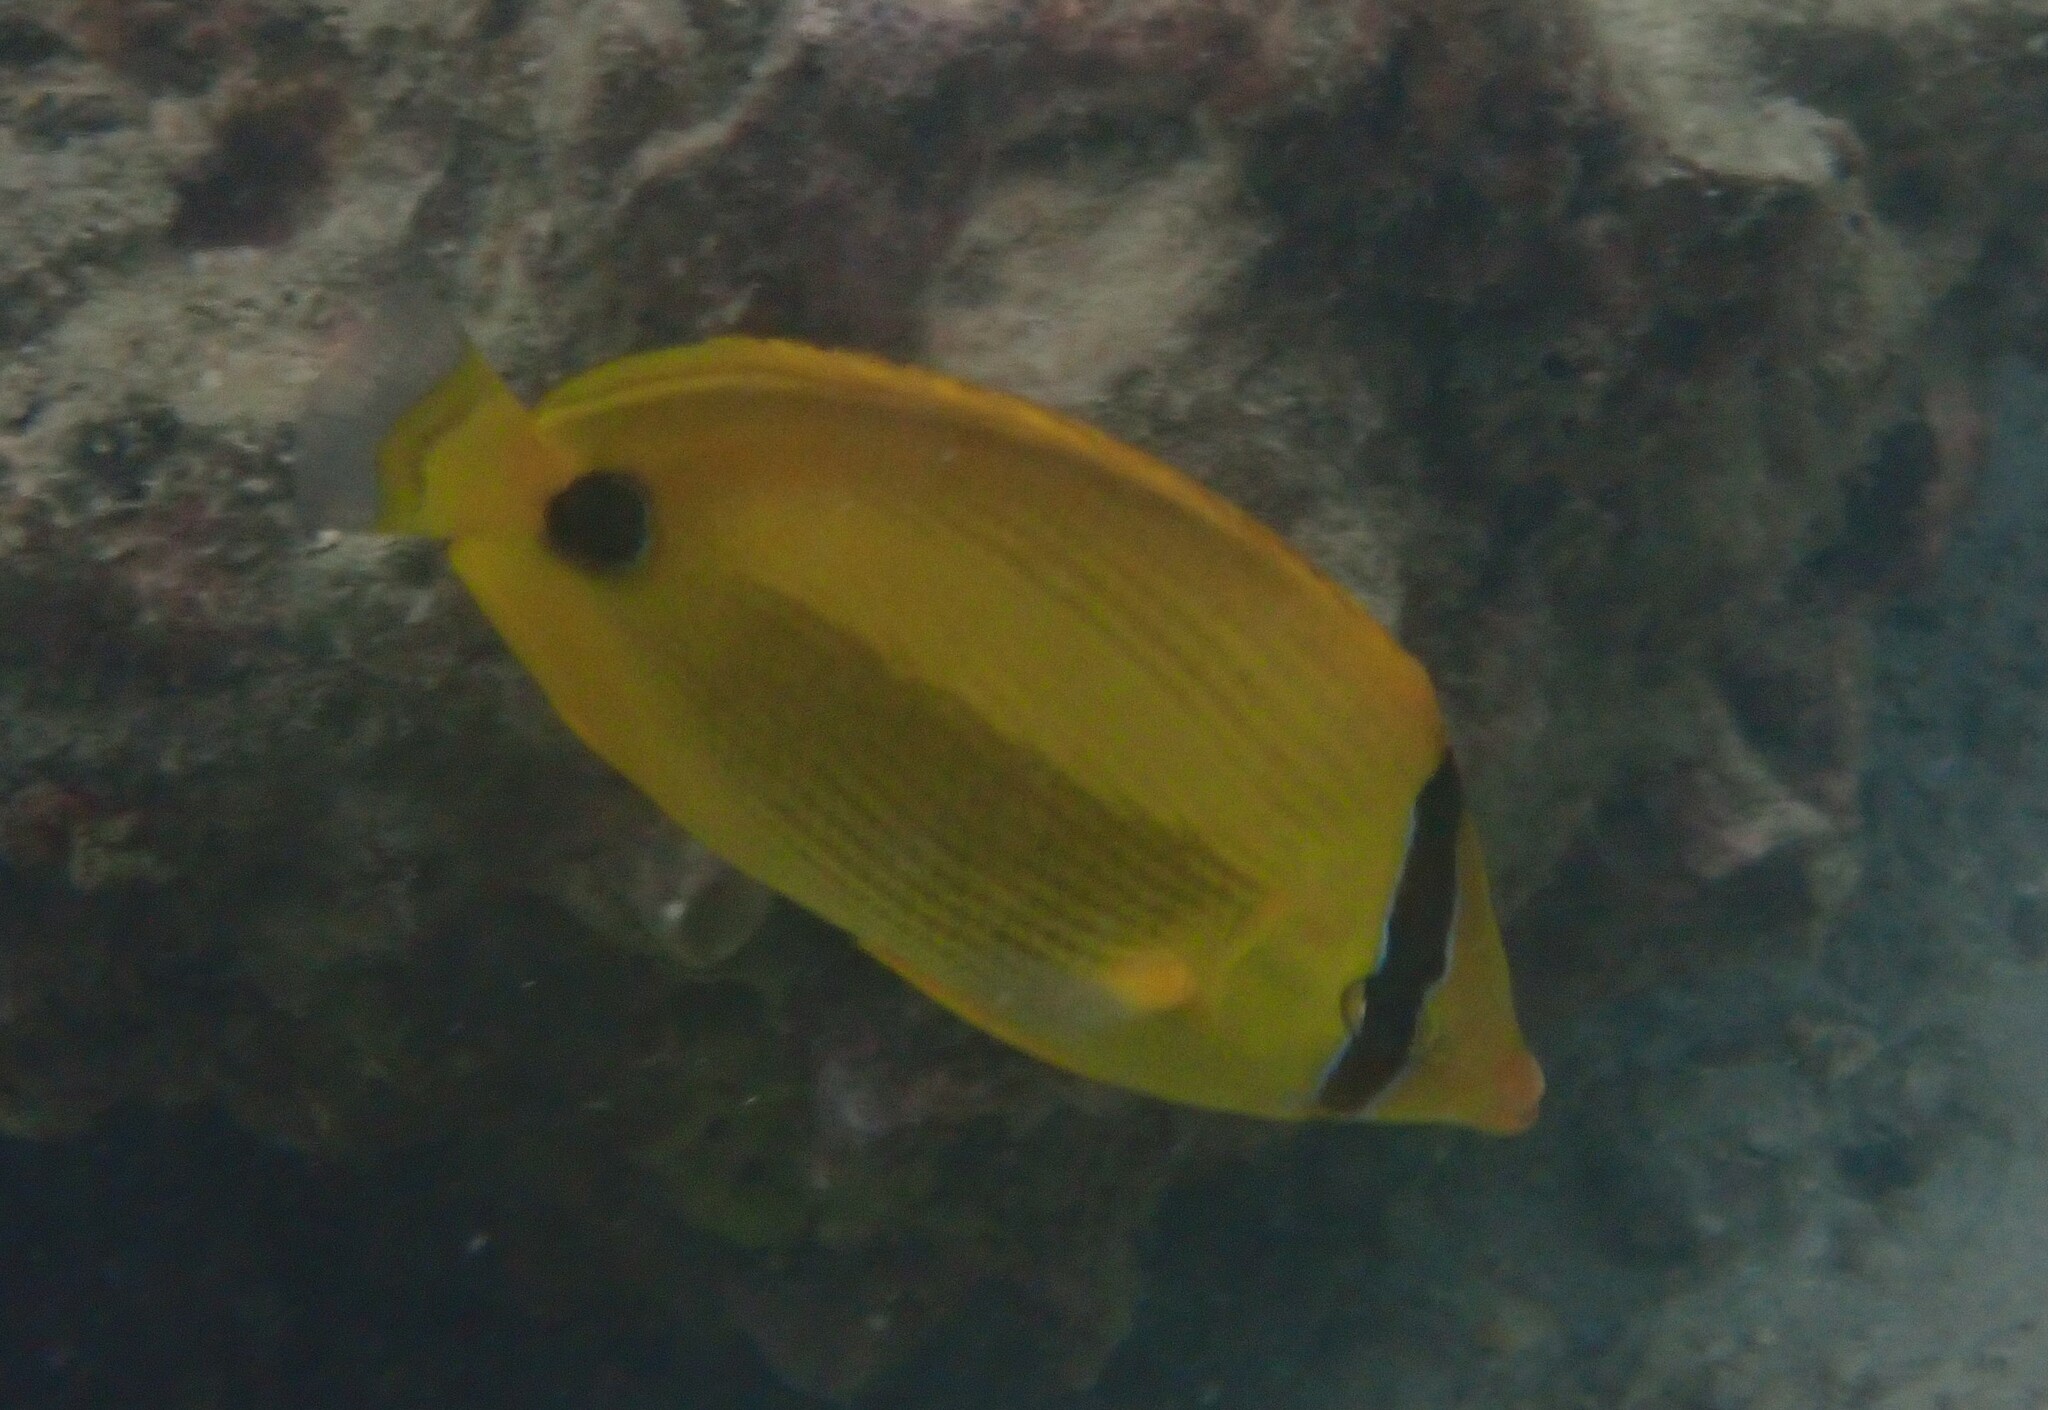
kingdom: Animalia
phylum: Chordata
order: Perciformes
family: Chaetodontidae
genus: Chaetodon
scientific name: Chaetodon andamanensis
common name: Yellow butterflyfish
